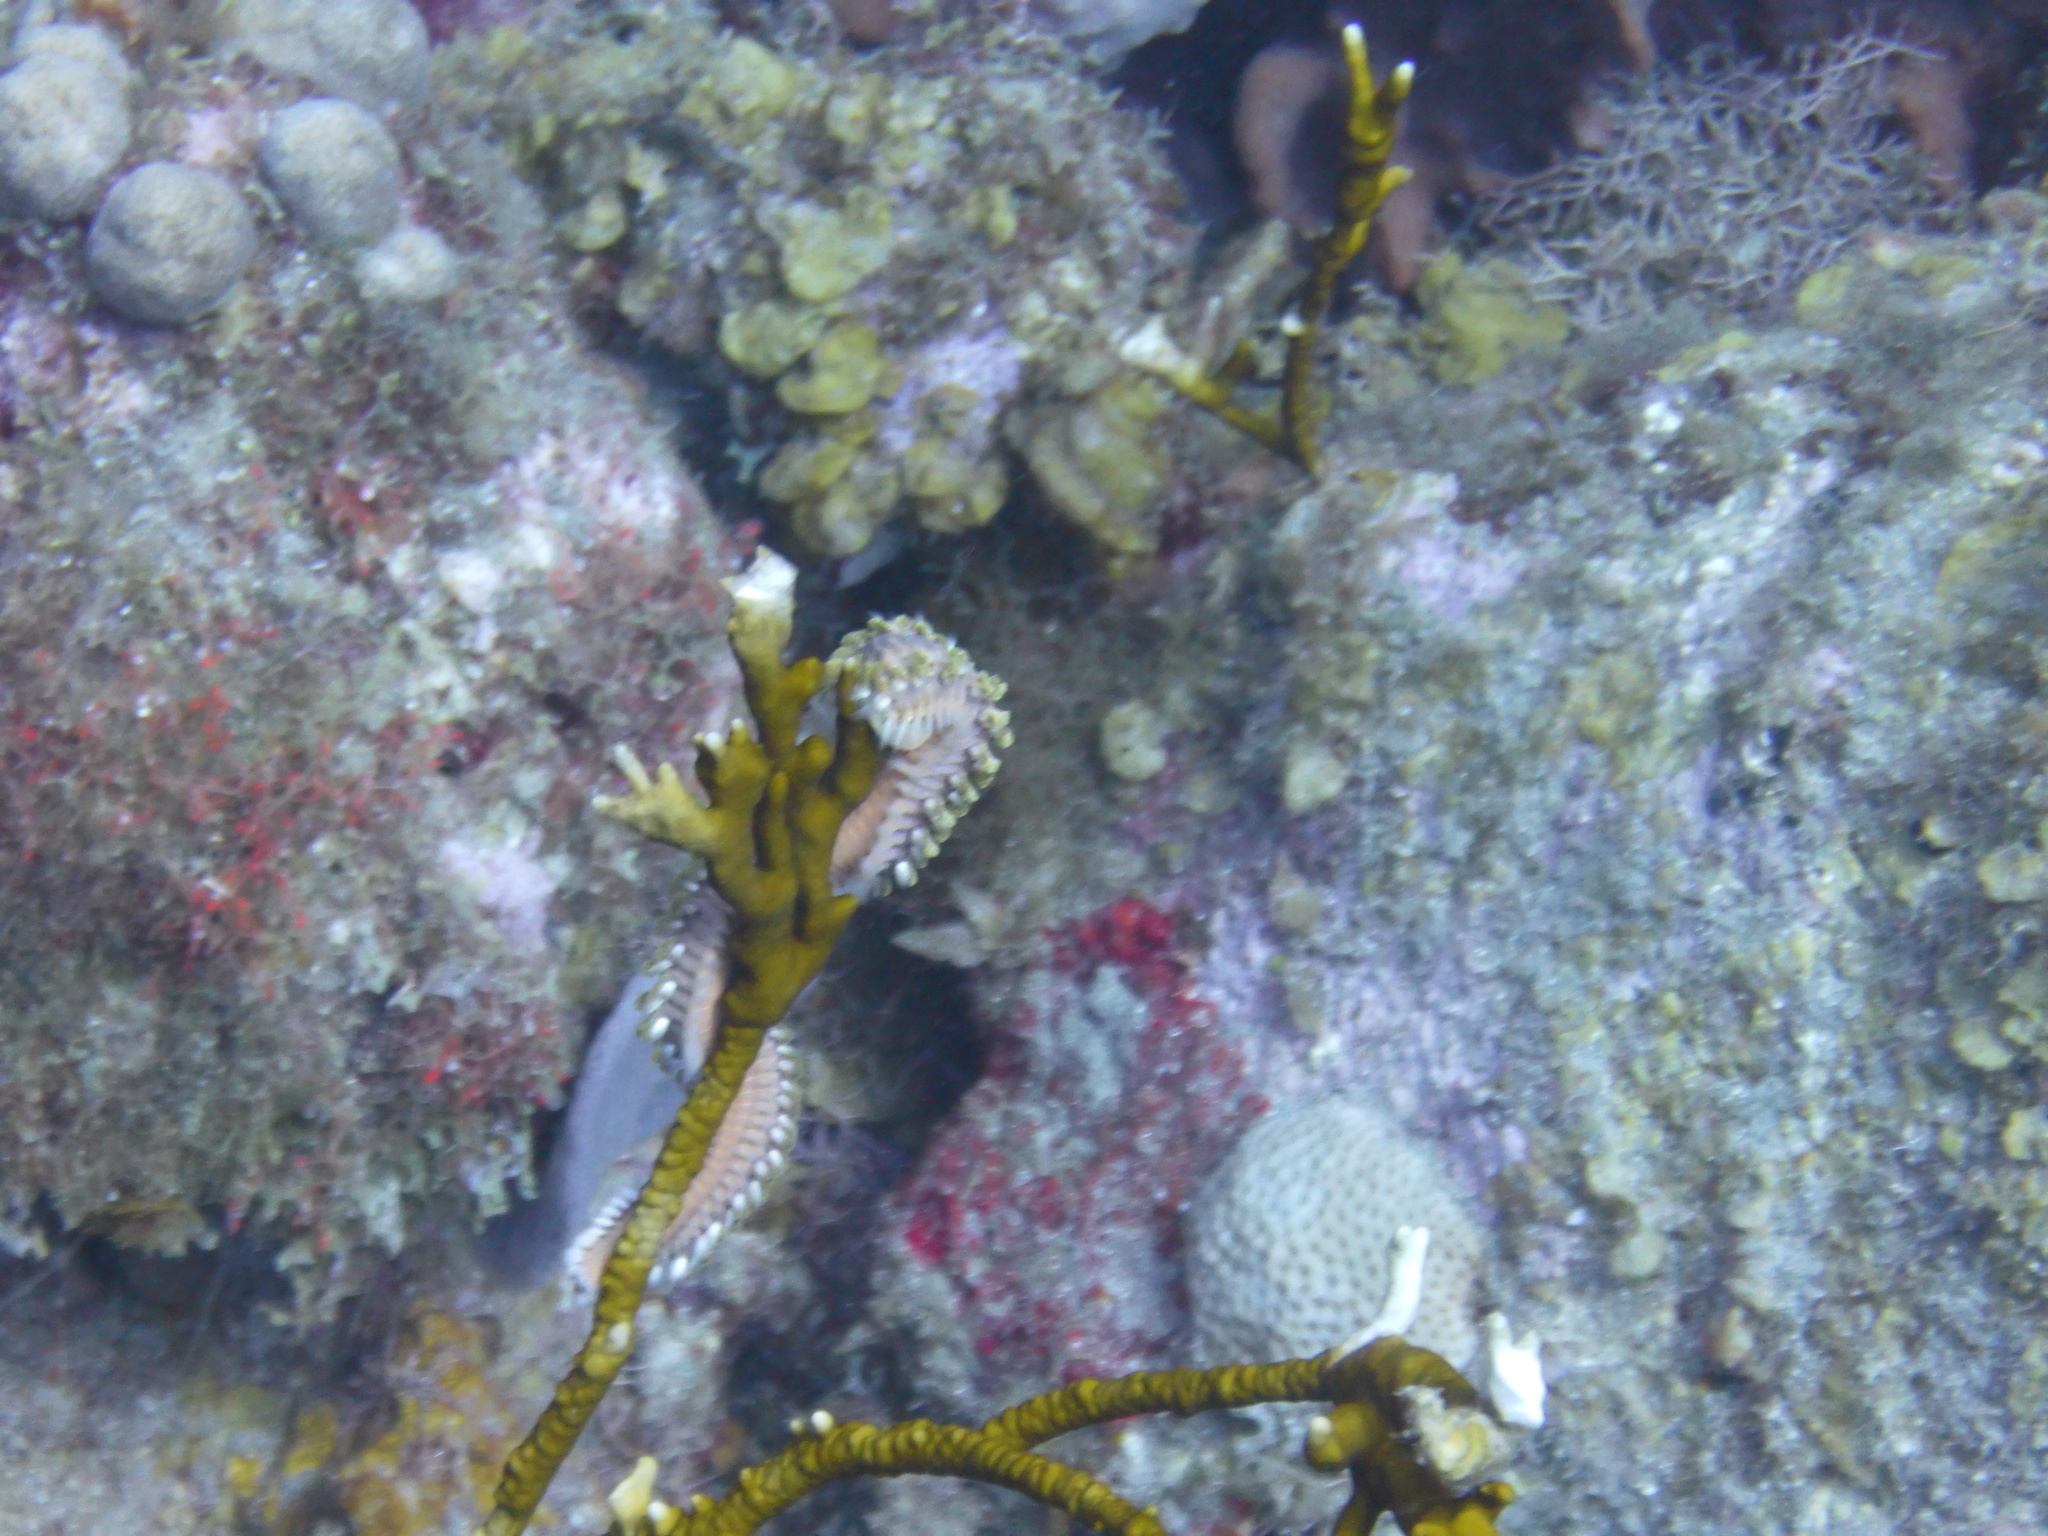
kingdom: Animalia
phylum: Annelida
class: Polychaeta
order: Amphinomida
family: Amphinomidae
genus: Hermodice
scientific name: Hermodice carunculata
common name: Bearded fireworm
